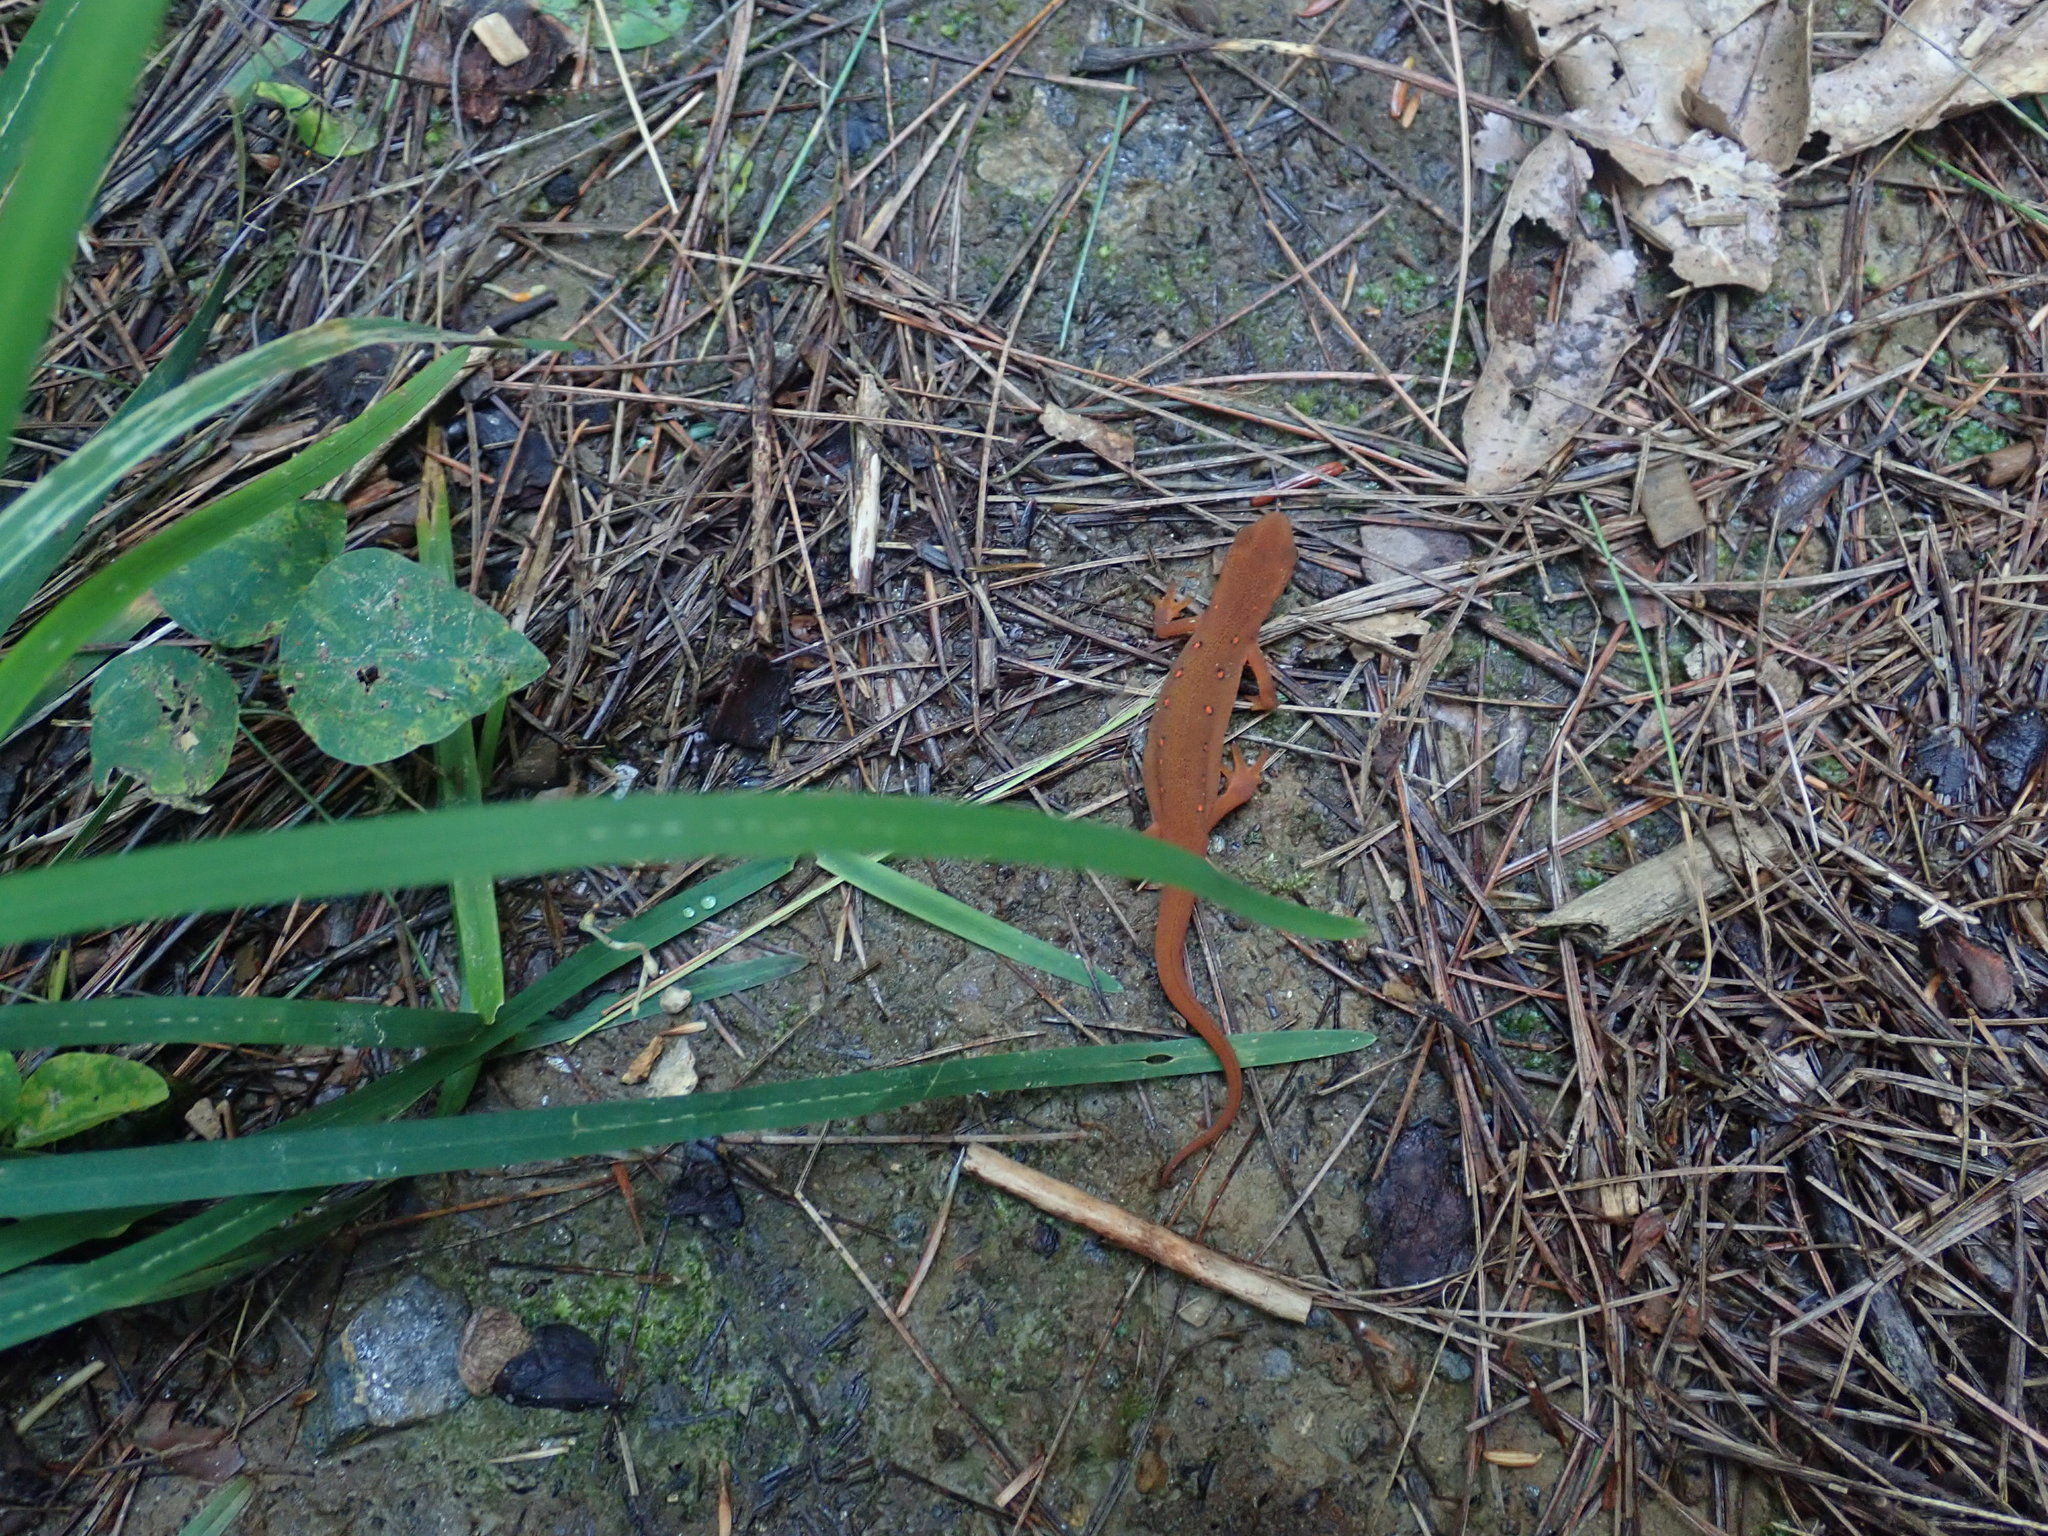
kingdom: Animalia
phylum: Chordata
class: Amphibia
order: Caudata
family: Salamandridae
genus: Notophthalmus
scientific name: Notophthalmus viridescens
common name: Eastern newt
